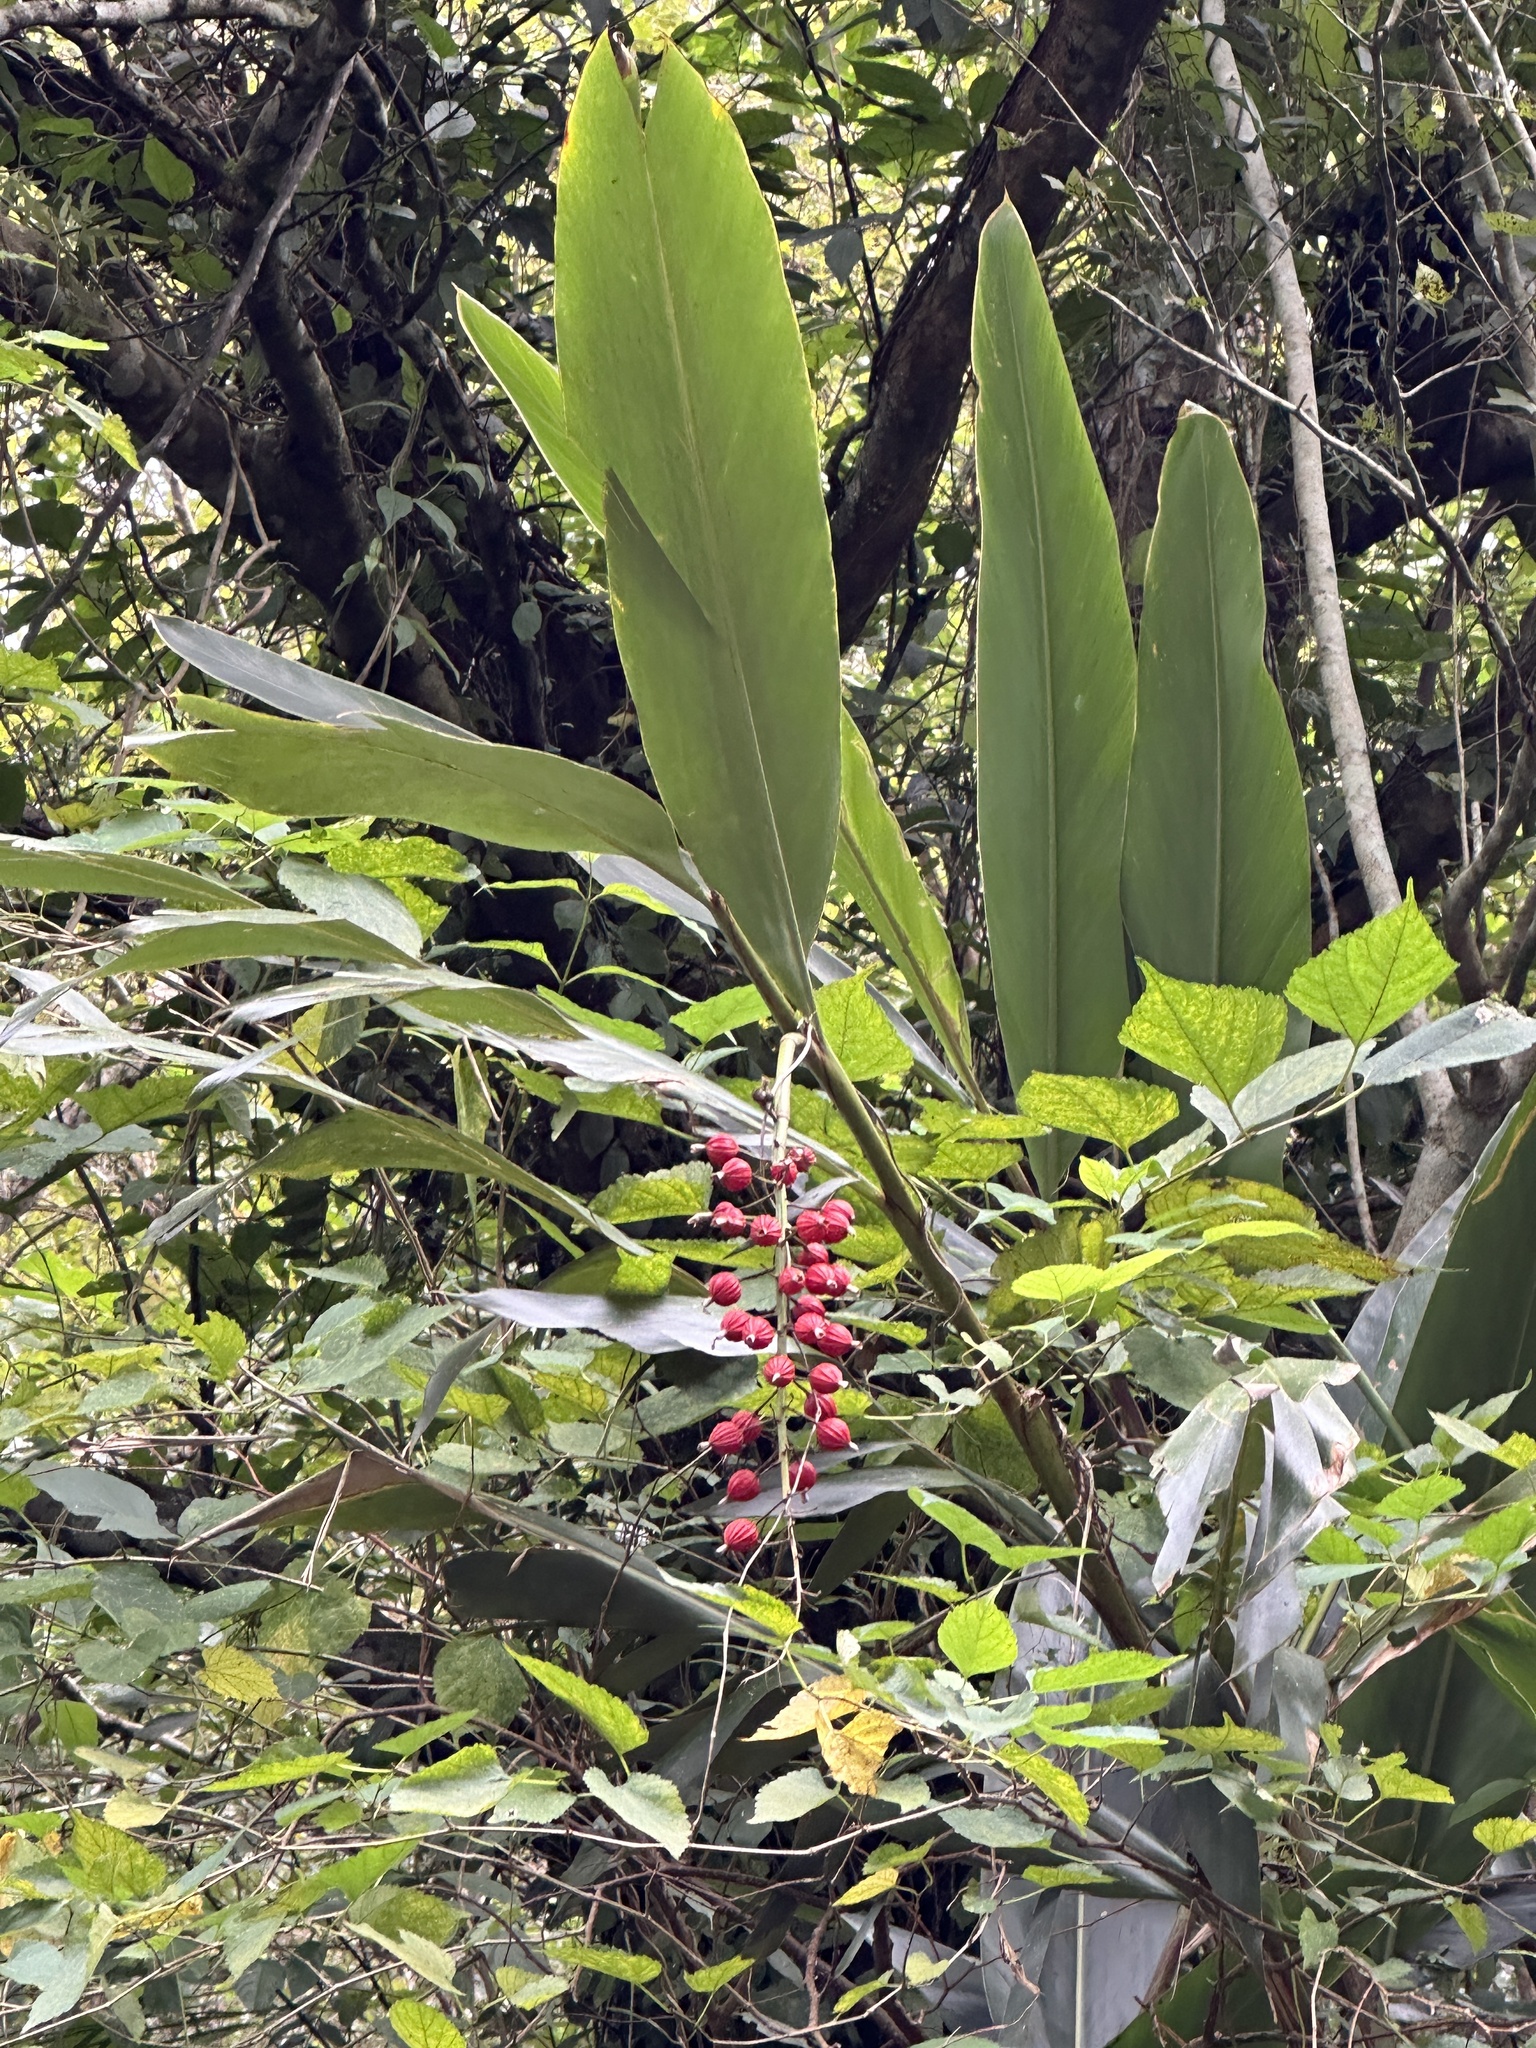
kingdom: Plantae
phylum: Tracheophyta
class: Liliopsida
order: Zingiberales
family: Zingiberaceae
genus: Alpinia
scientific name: Alpinia zerumbet
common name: Shellplant
